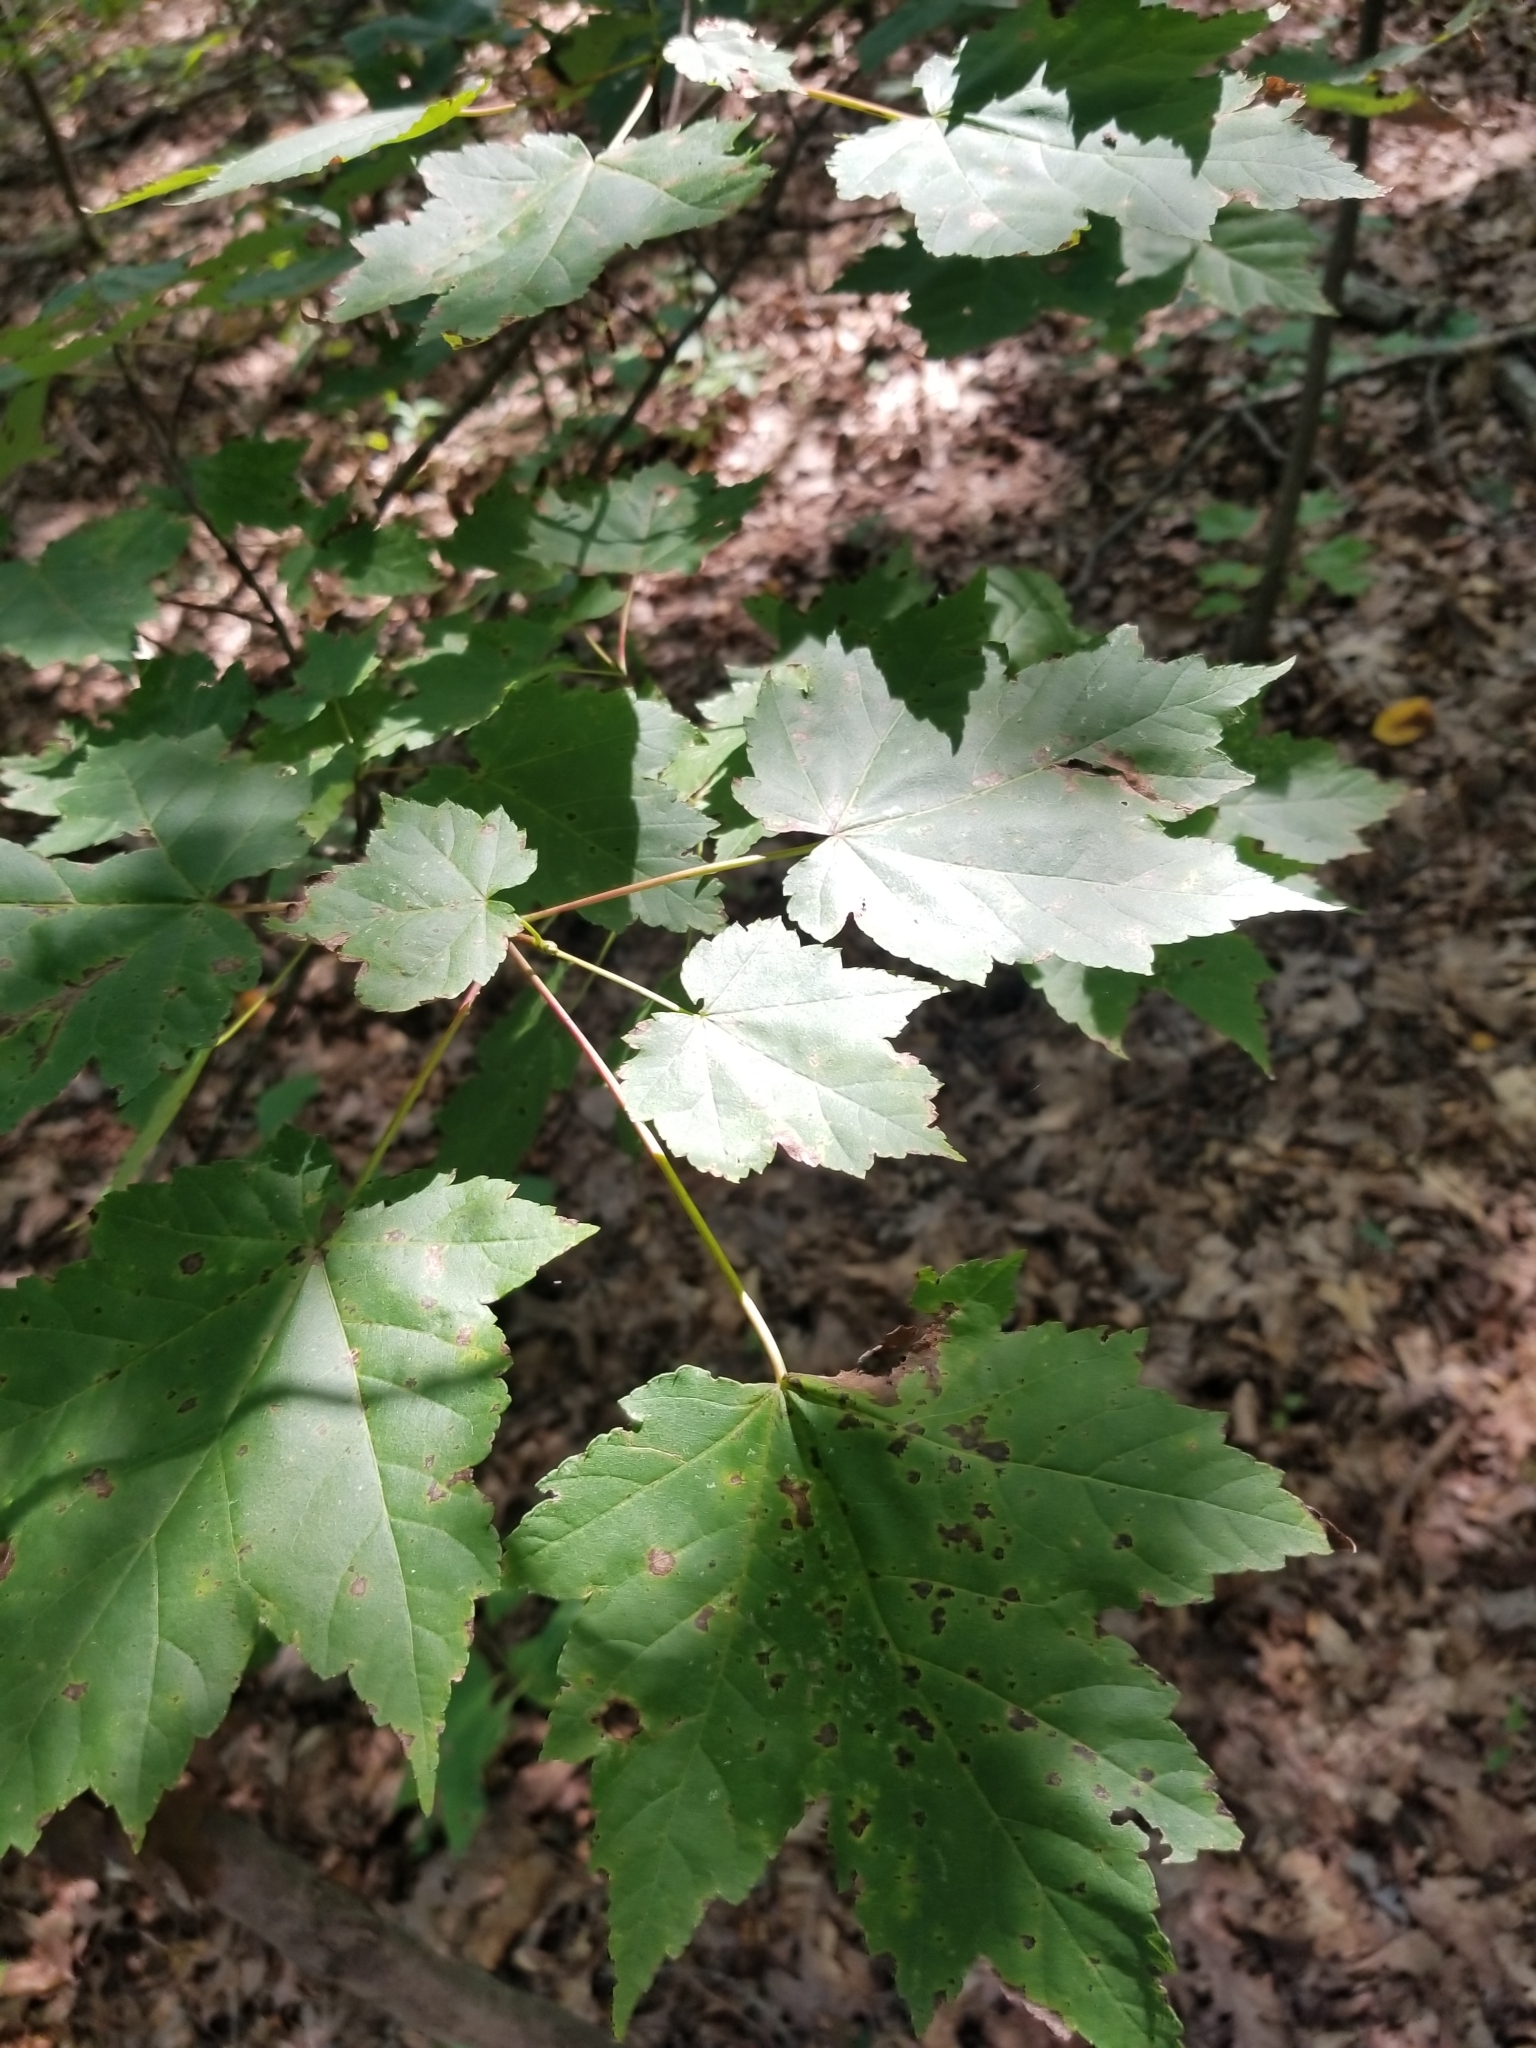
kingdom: Plantae
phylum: Tracheophyta
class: Magnoliopsida
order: Sapindales
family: Sapindaceae
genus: Acer
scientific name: Acer rubrum
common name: Red maple
